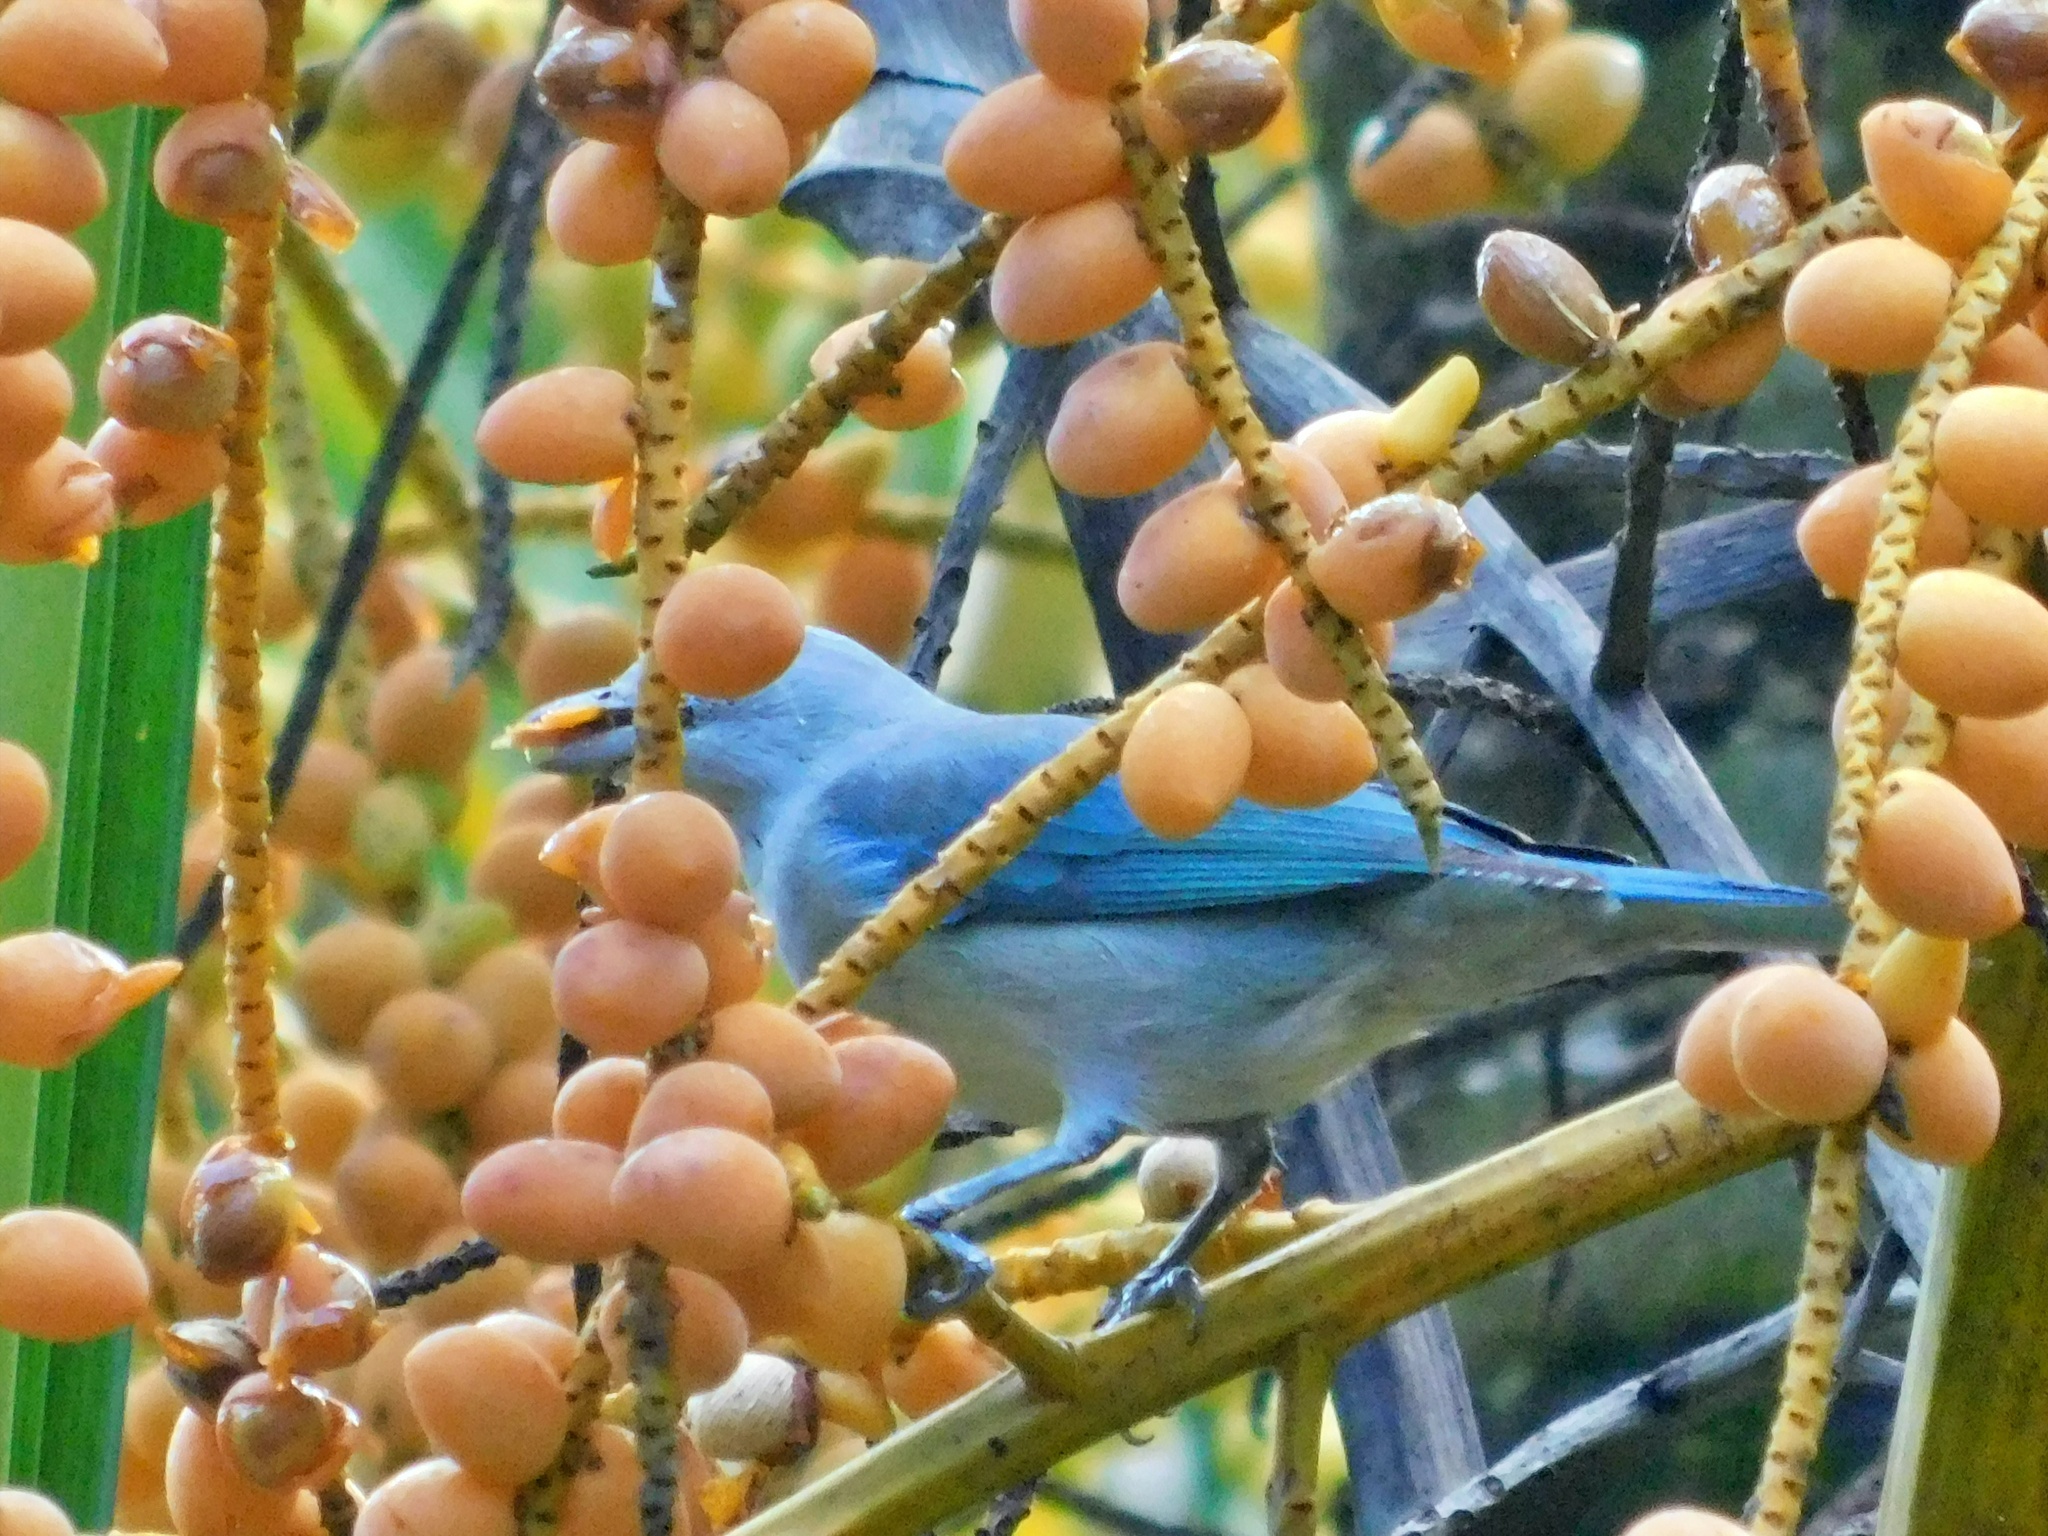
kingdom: Animalia
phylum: Chordata
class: Aves
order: Passeriformes
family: Thraupidae
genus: Thraupis
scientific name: Thraupis episcopus
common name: Blue-grey tanager
